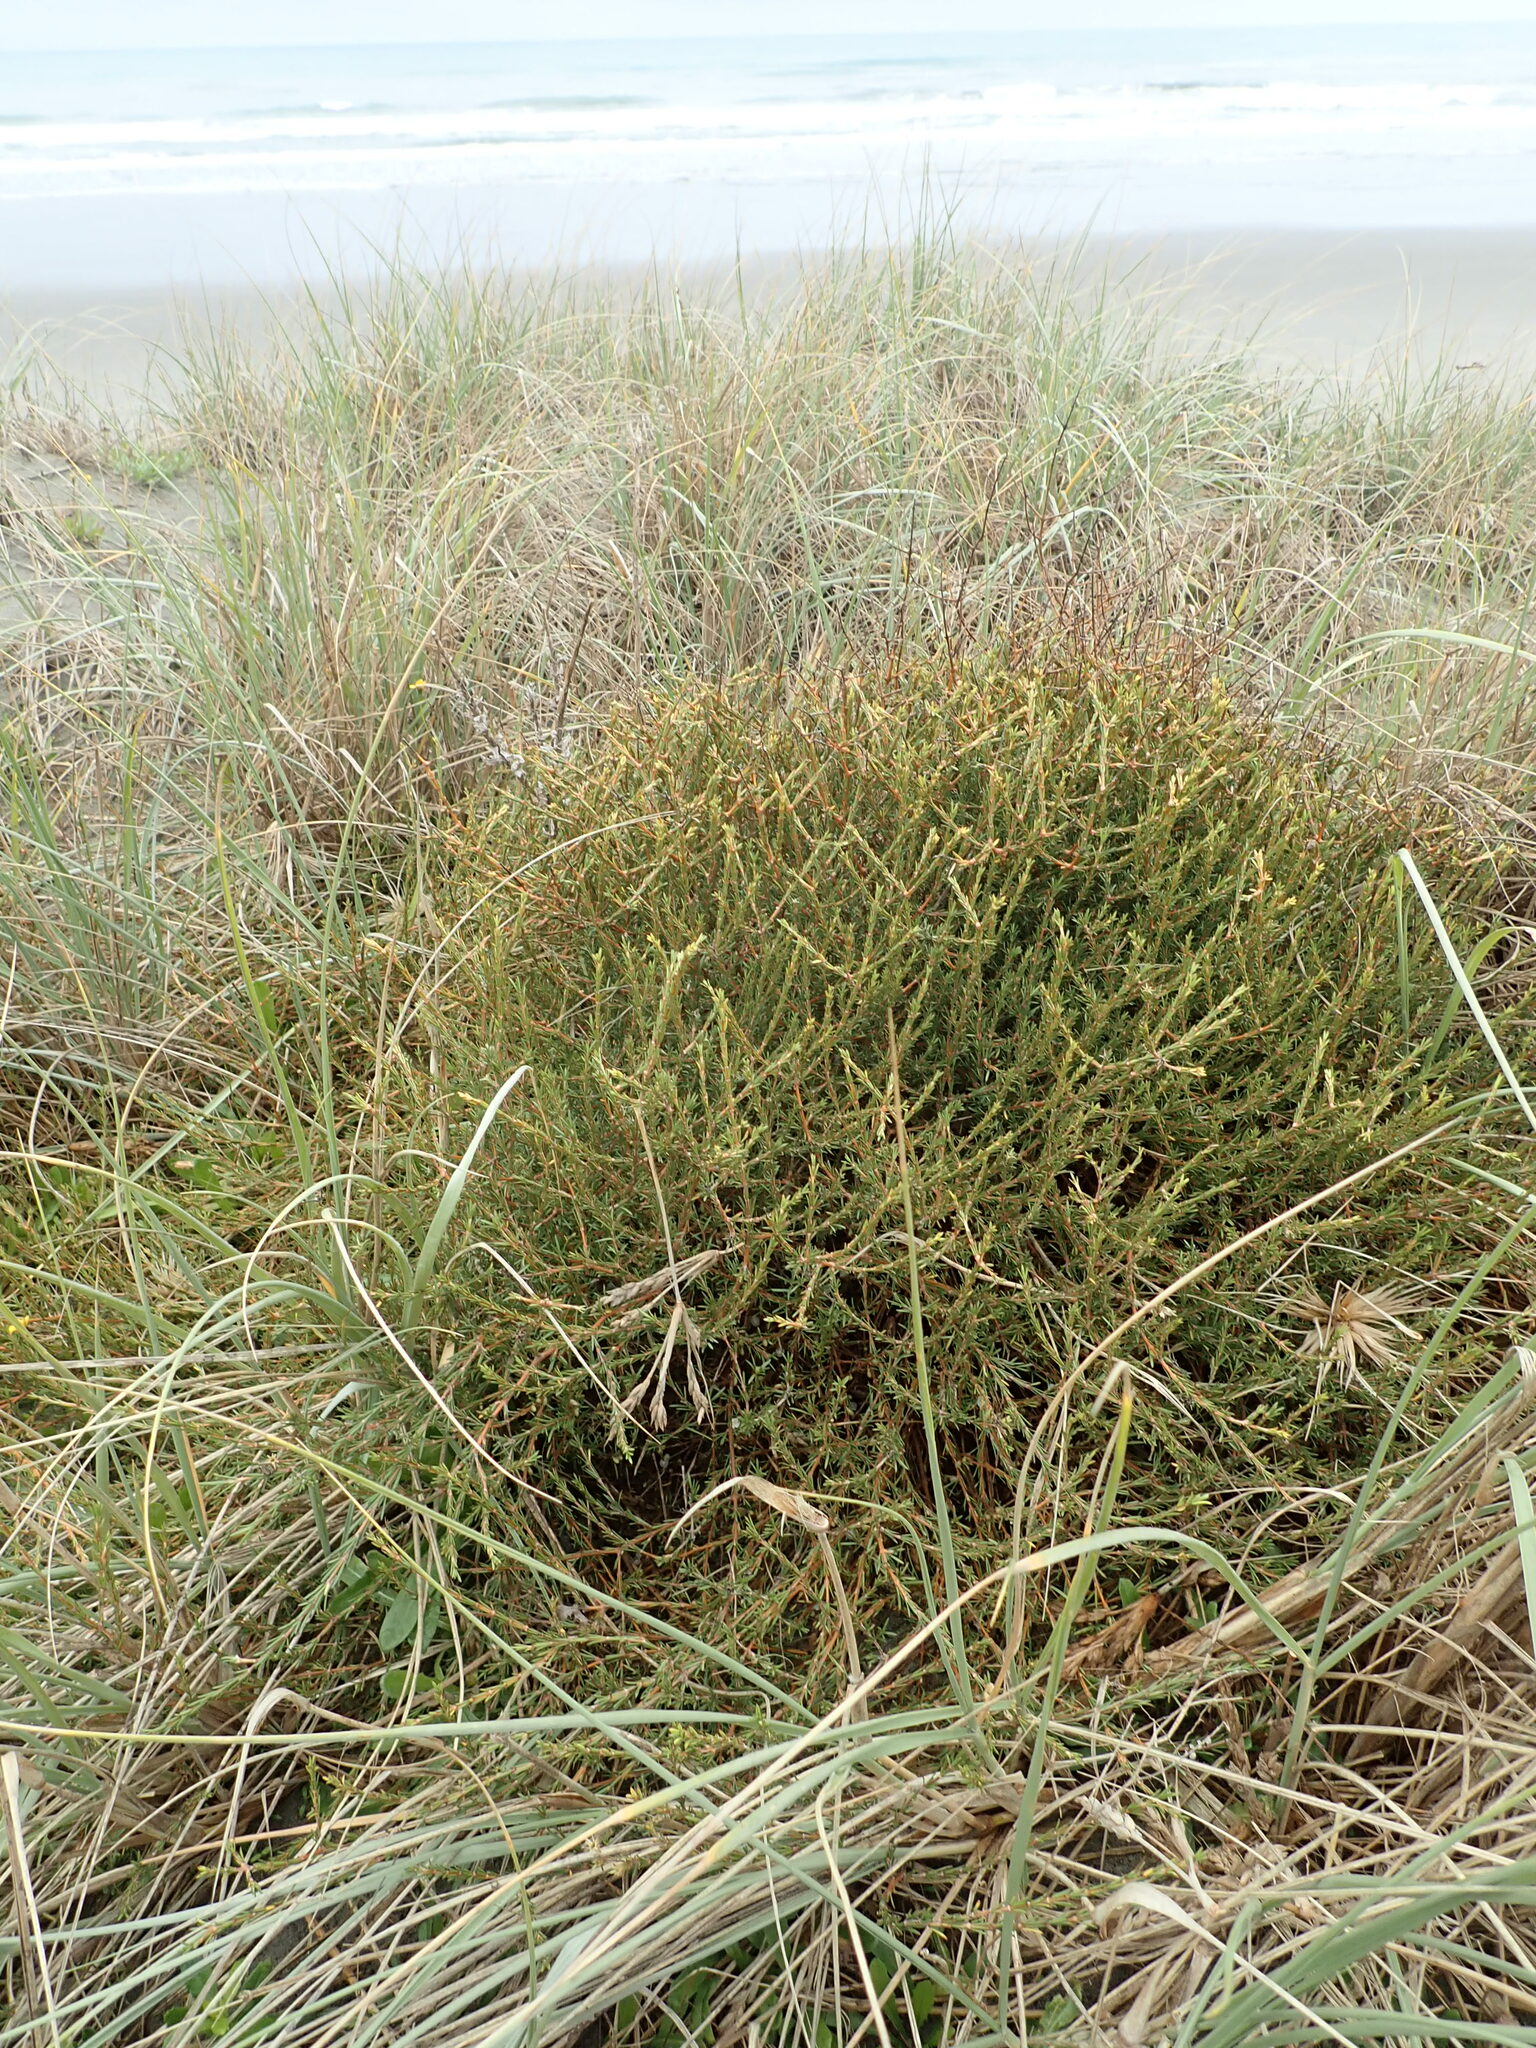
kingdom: Plantae
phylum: Tracheophyta
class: Magnoliopsida
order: Gentianales
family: Rubiaceae
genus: Coprosma
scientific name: Coprosma acerosa
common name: Sand coprosma
